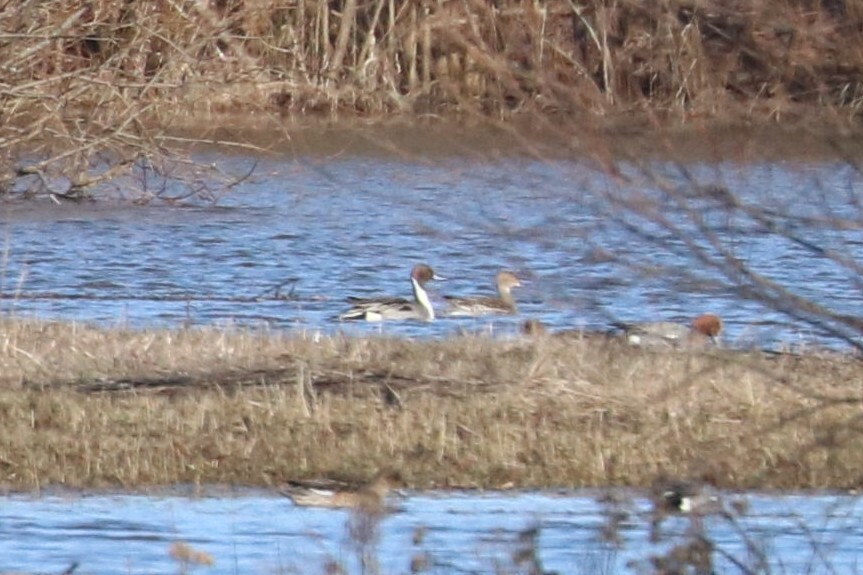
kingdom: Animalia
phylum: Chordata
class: Aves
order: Anseriformes
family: Anatidae
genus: Anas
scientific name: Anas acuta
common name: Northern pintail
